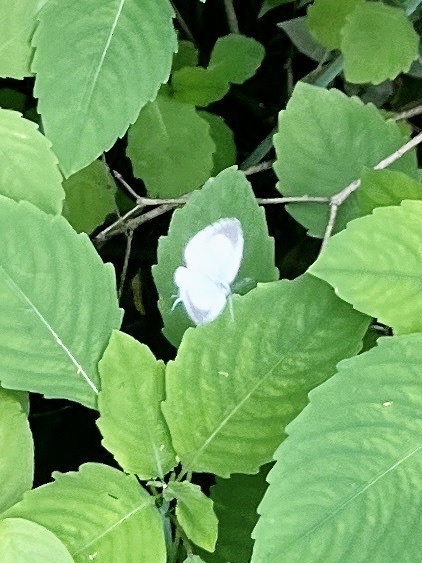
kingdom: Animalia
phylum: Arthropoda
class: Insecta
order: Lepidoptera
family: Lycaenidae
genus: Cyaniris
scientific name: Cyaniris neglecta
